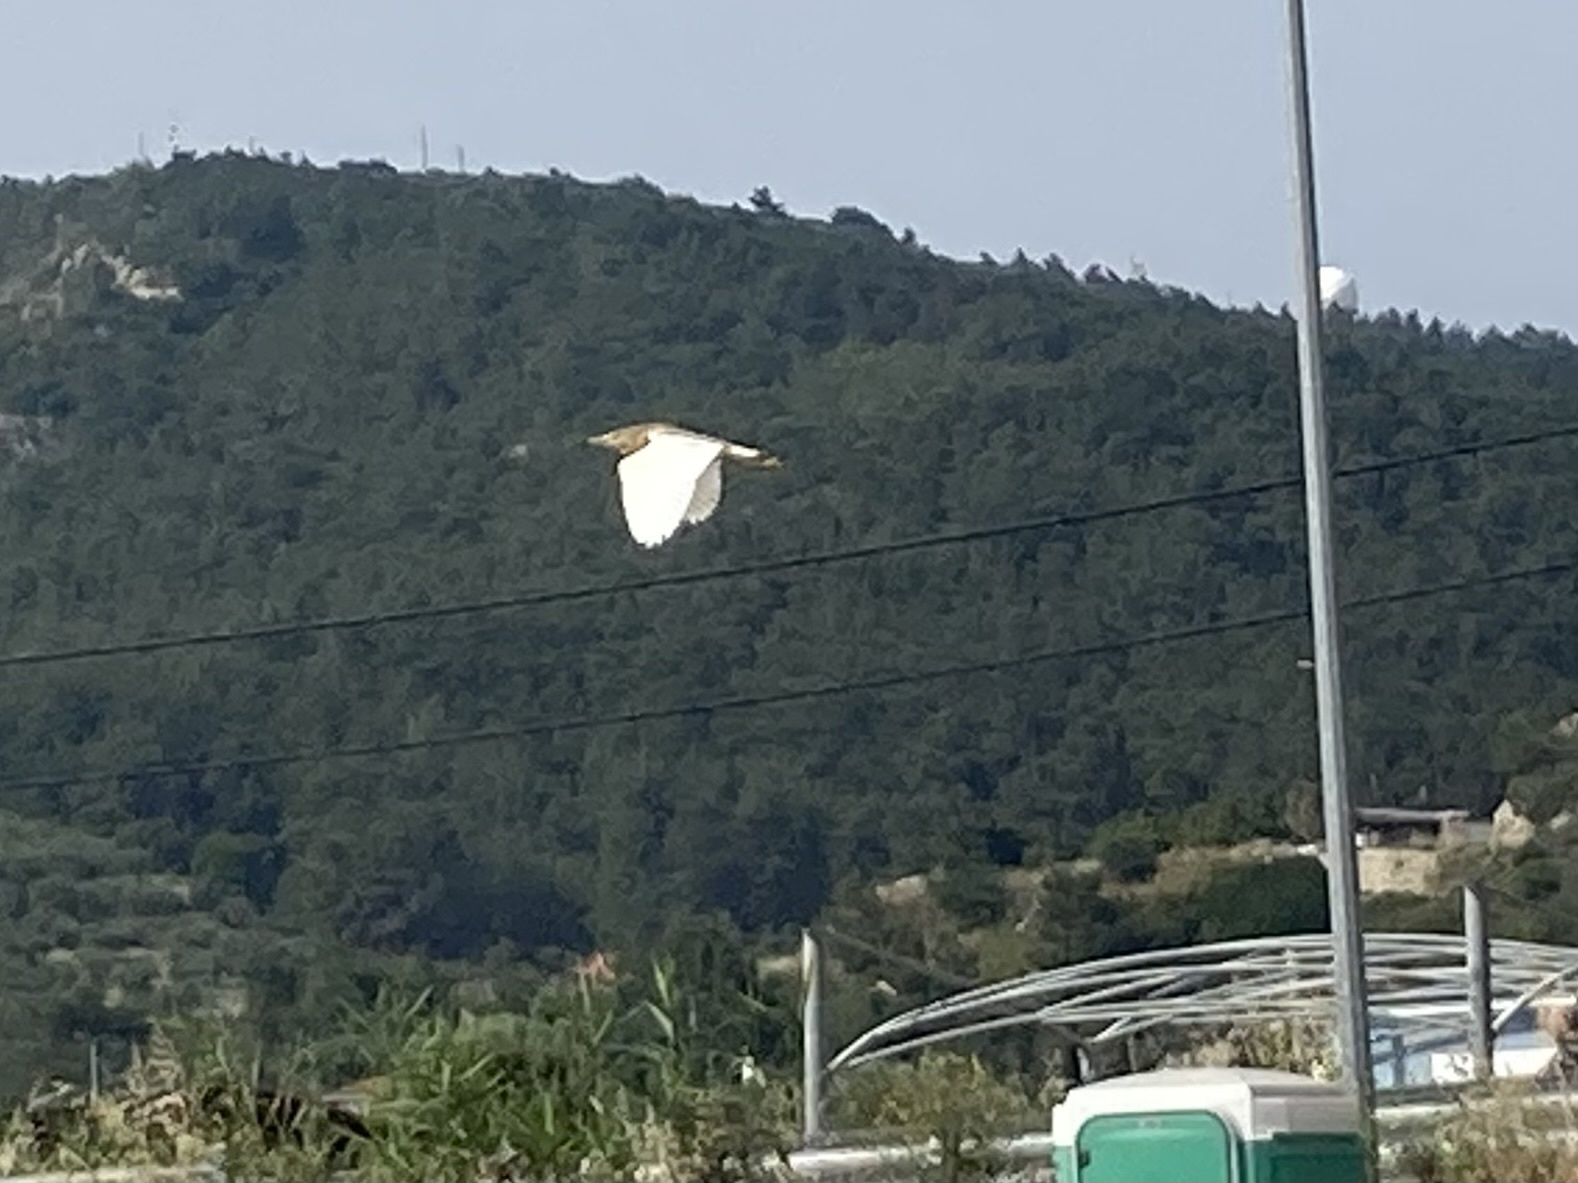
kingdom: Animalia
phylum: Chordata
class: Aves
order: Pelecaniformes
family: Ardeidae
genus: Ardeola
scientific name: Ardeola ralloides
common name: Squacco heron
